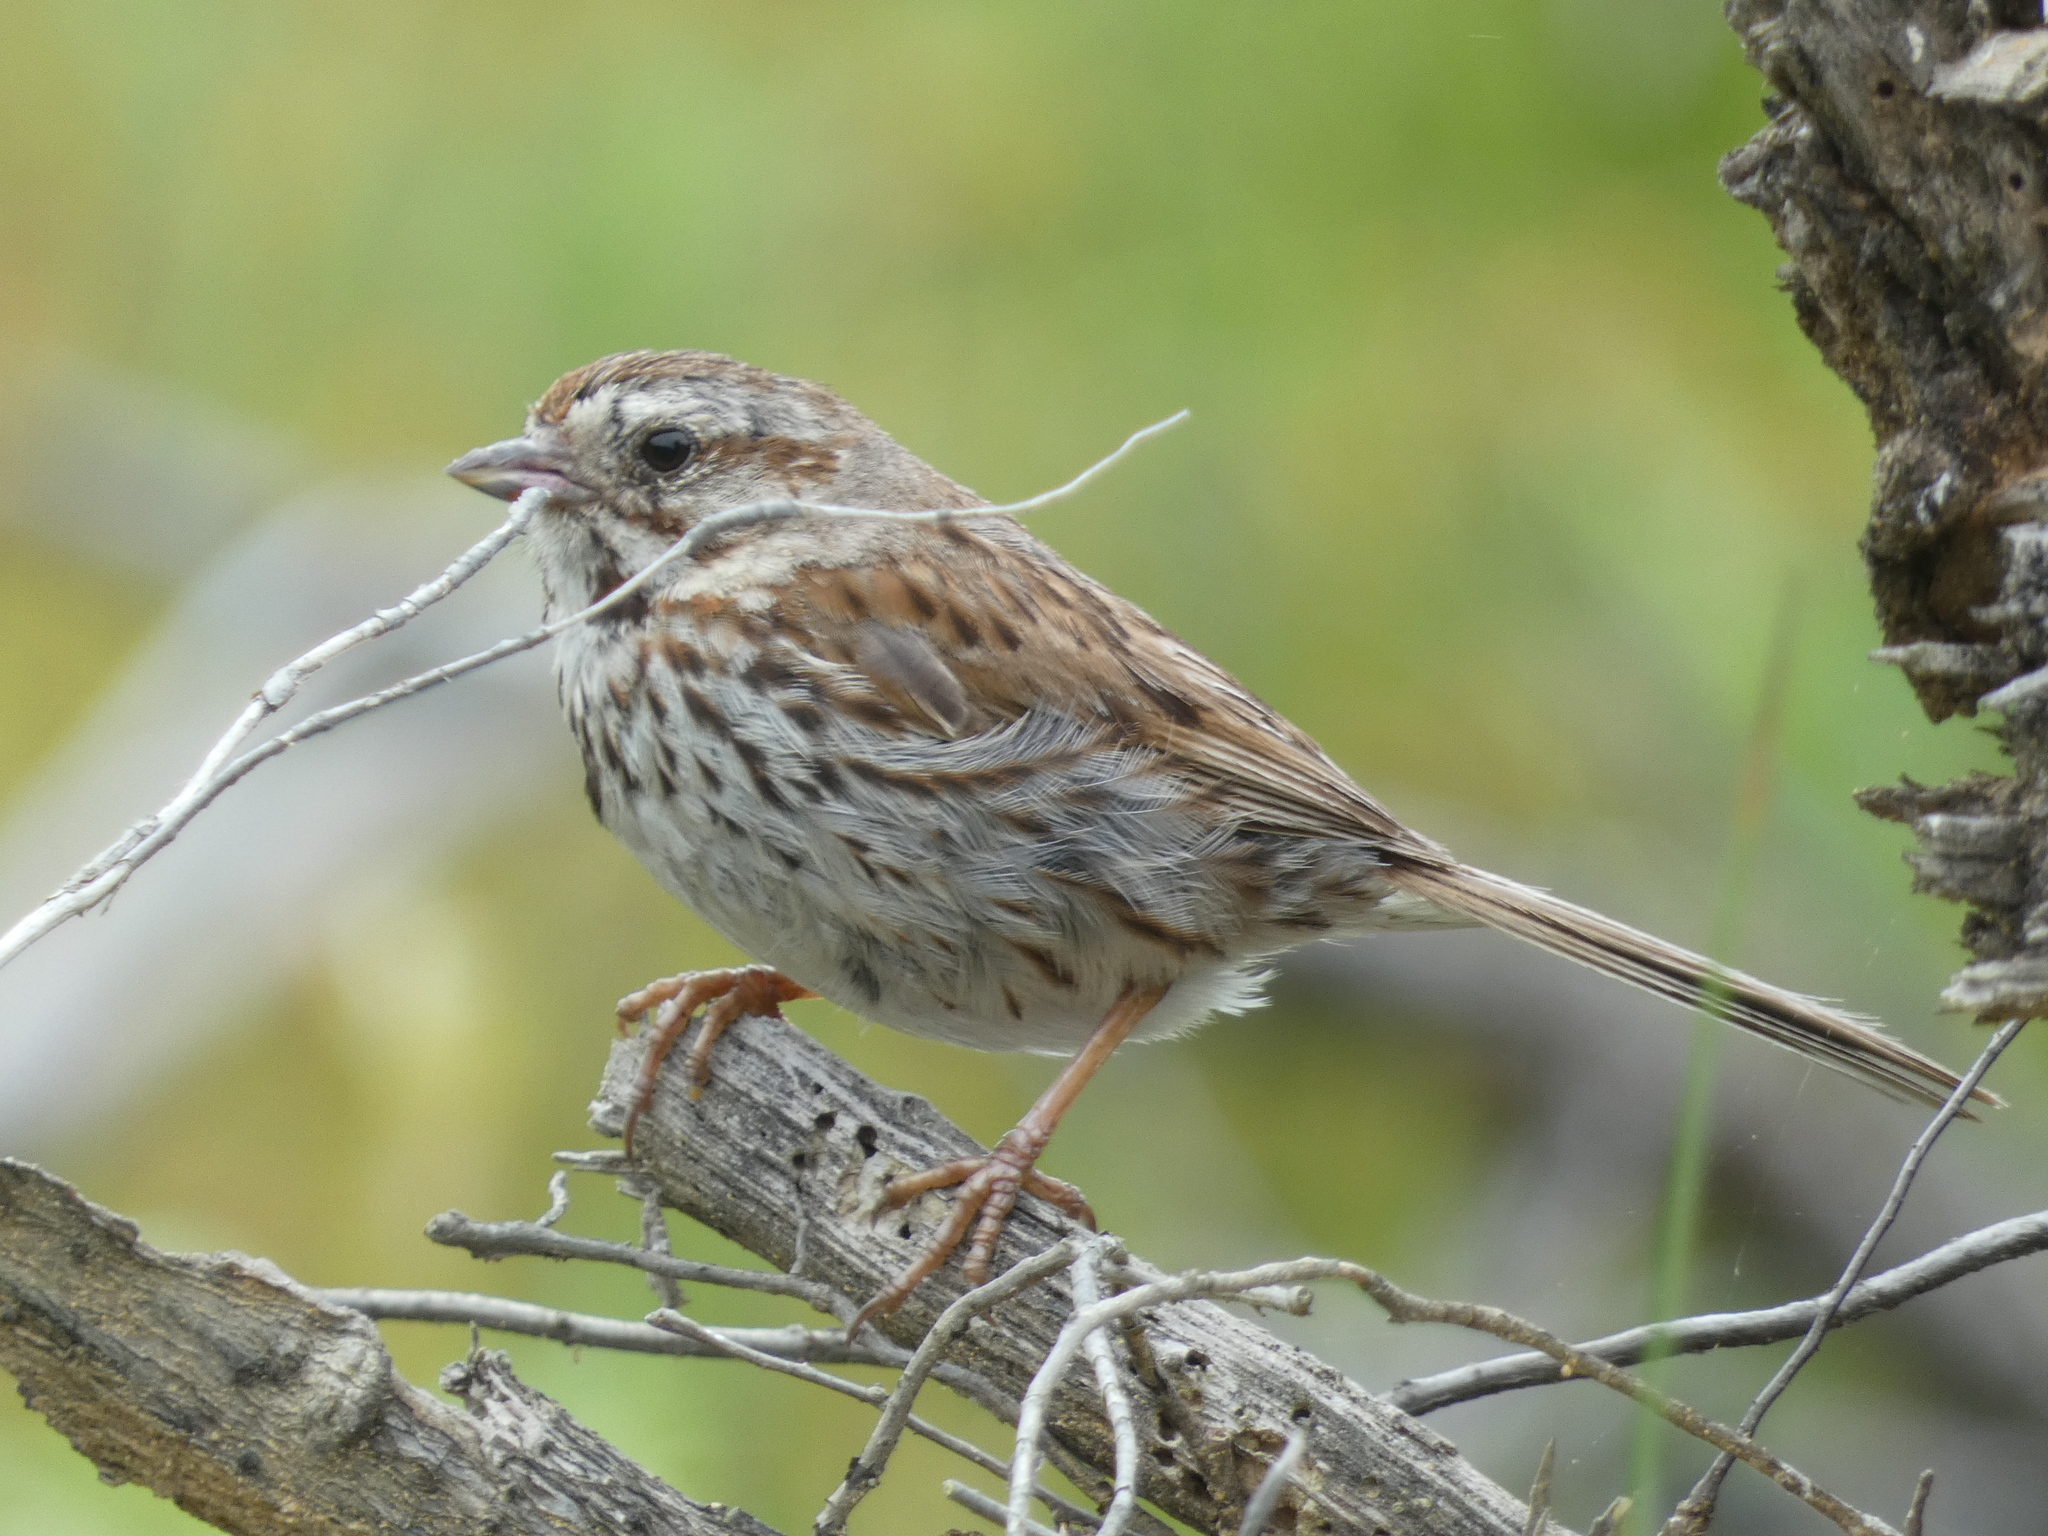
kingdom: Animalia
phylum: Chordata
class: Aves
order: Passeriformes
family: Passerellidae
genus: Melospiza
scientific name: Melospiza melodia
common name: Song sparrow
